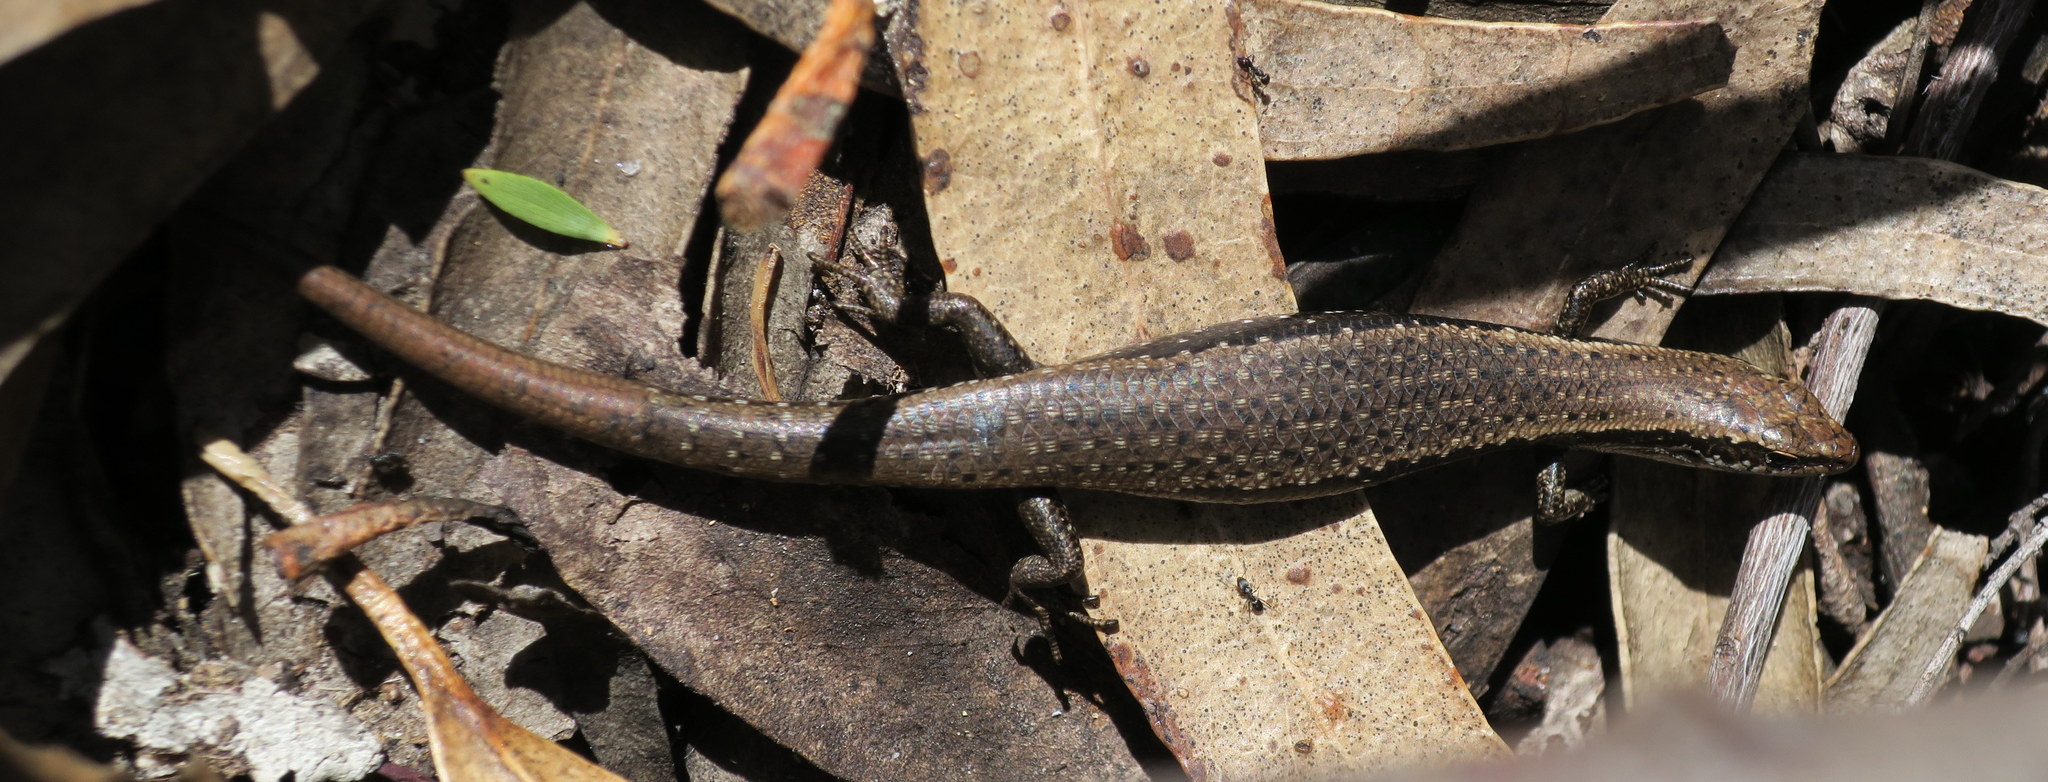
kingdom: Animalia
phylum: Chordata
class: Squamata
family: Scincidae
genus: Carinascincus
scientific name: Carinascincus metallicus
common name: Metallic cool-skink
